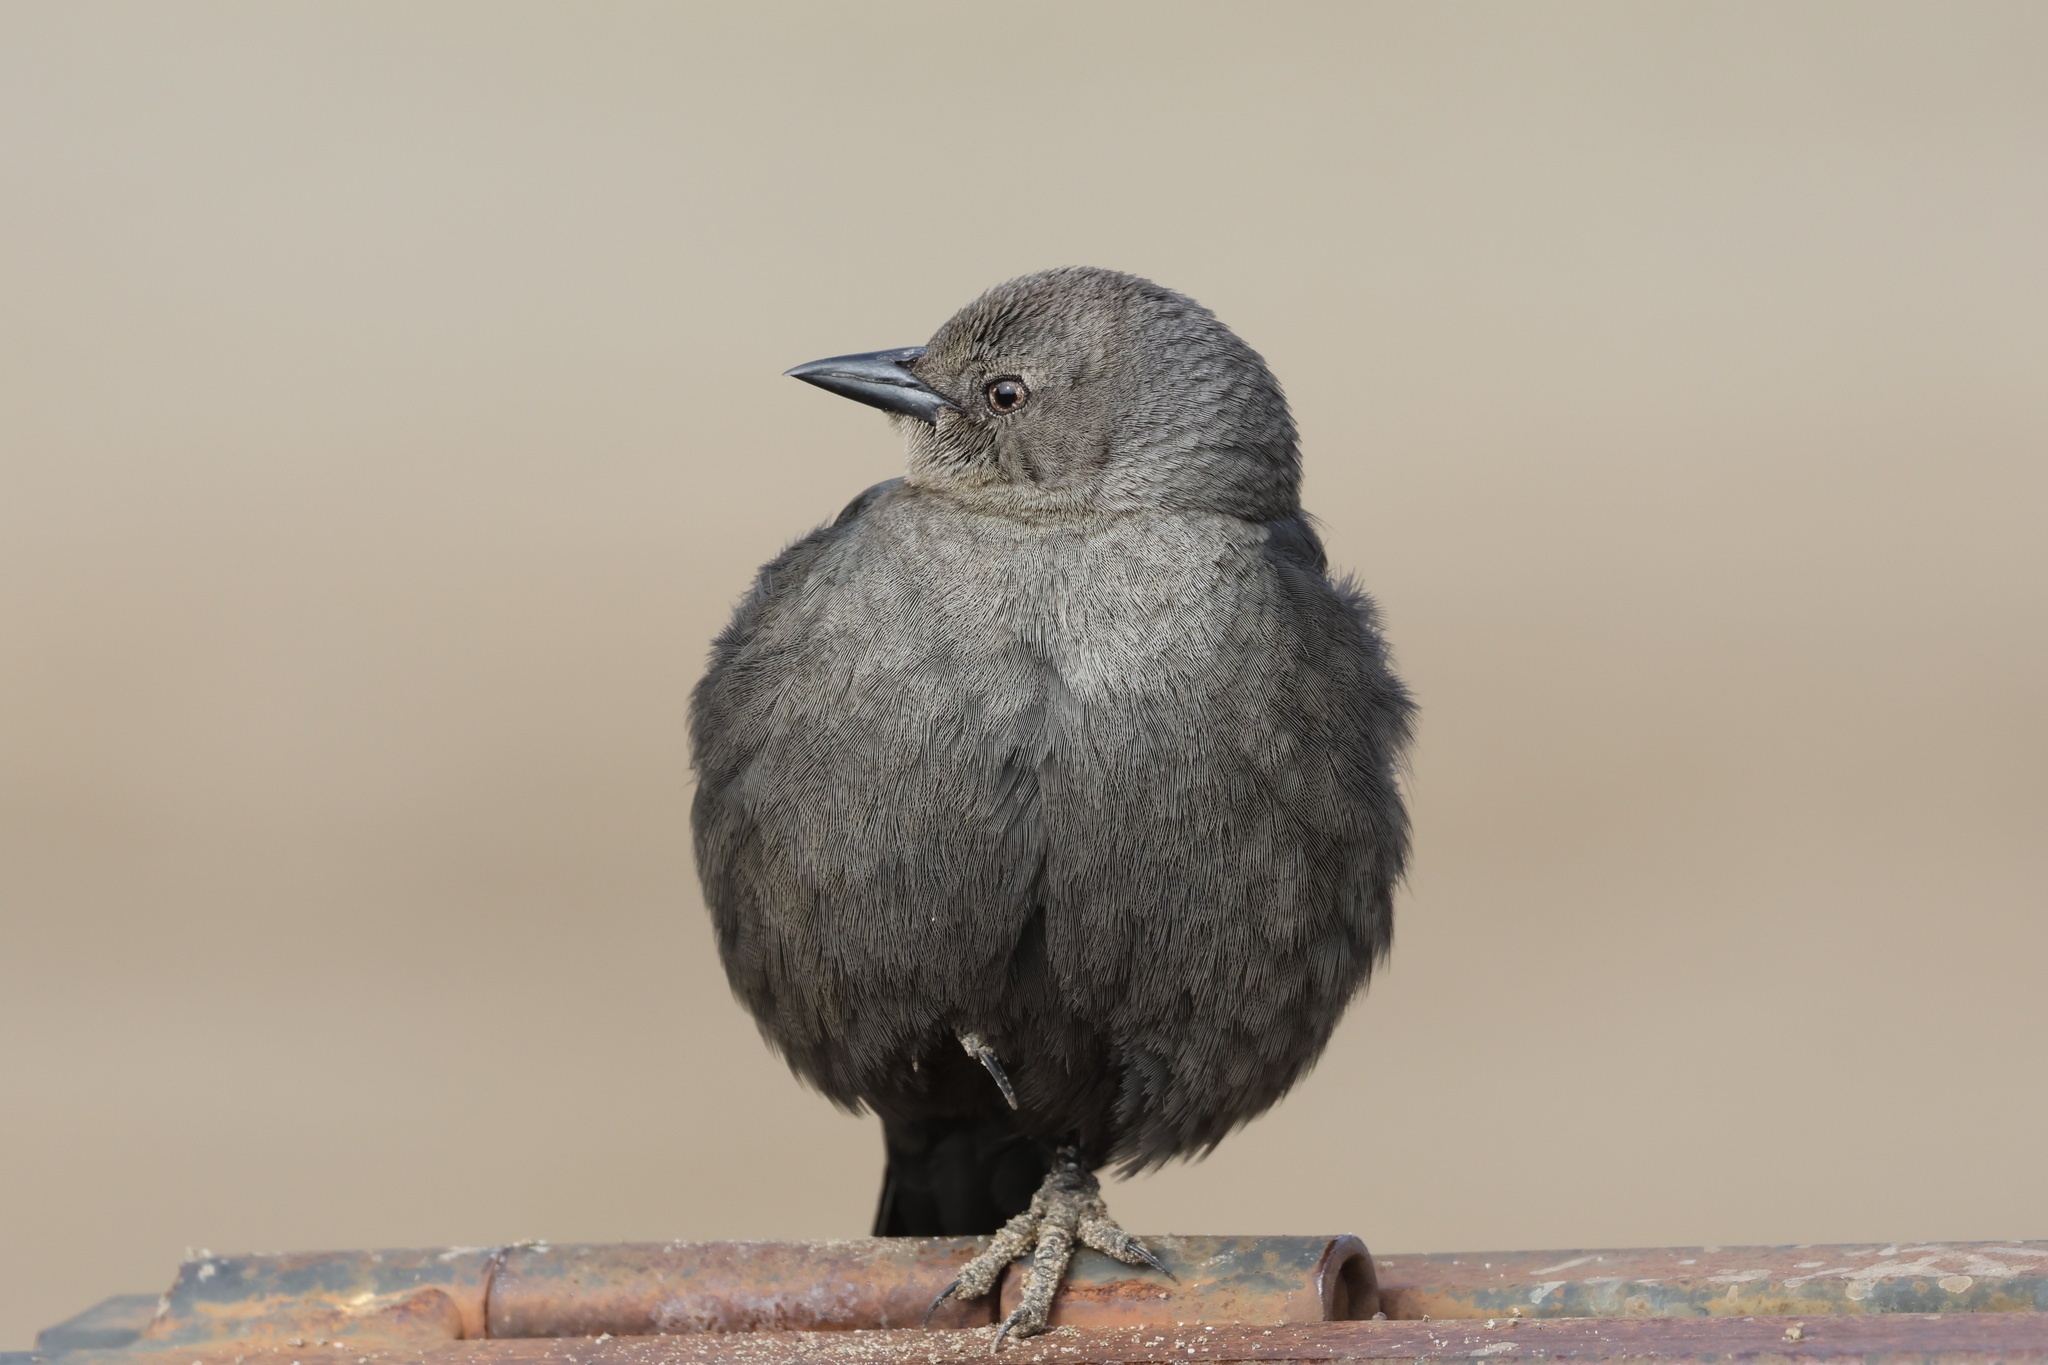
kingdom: Animalia
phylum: Chordata
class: Aves
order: Passeriformes
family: Icteridae
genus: Euphagus
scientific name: Euphagus cyanocephalus
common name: Brewer's blackbird
